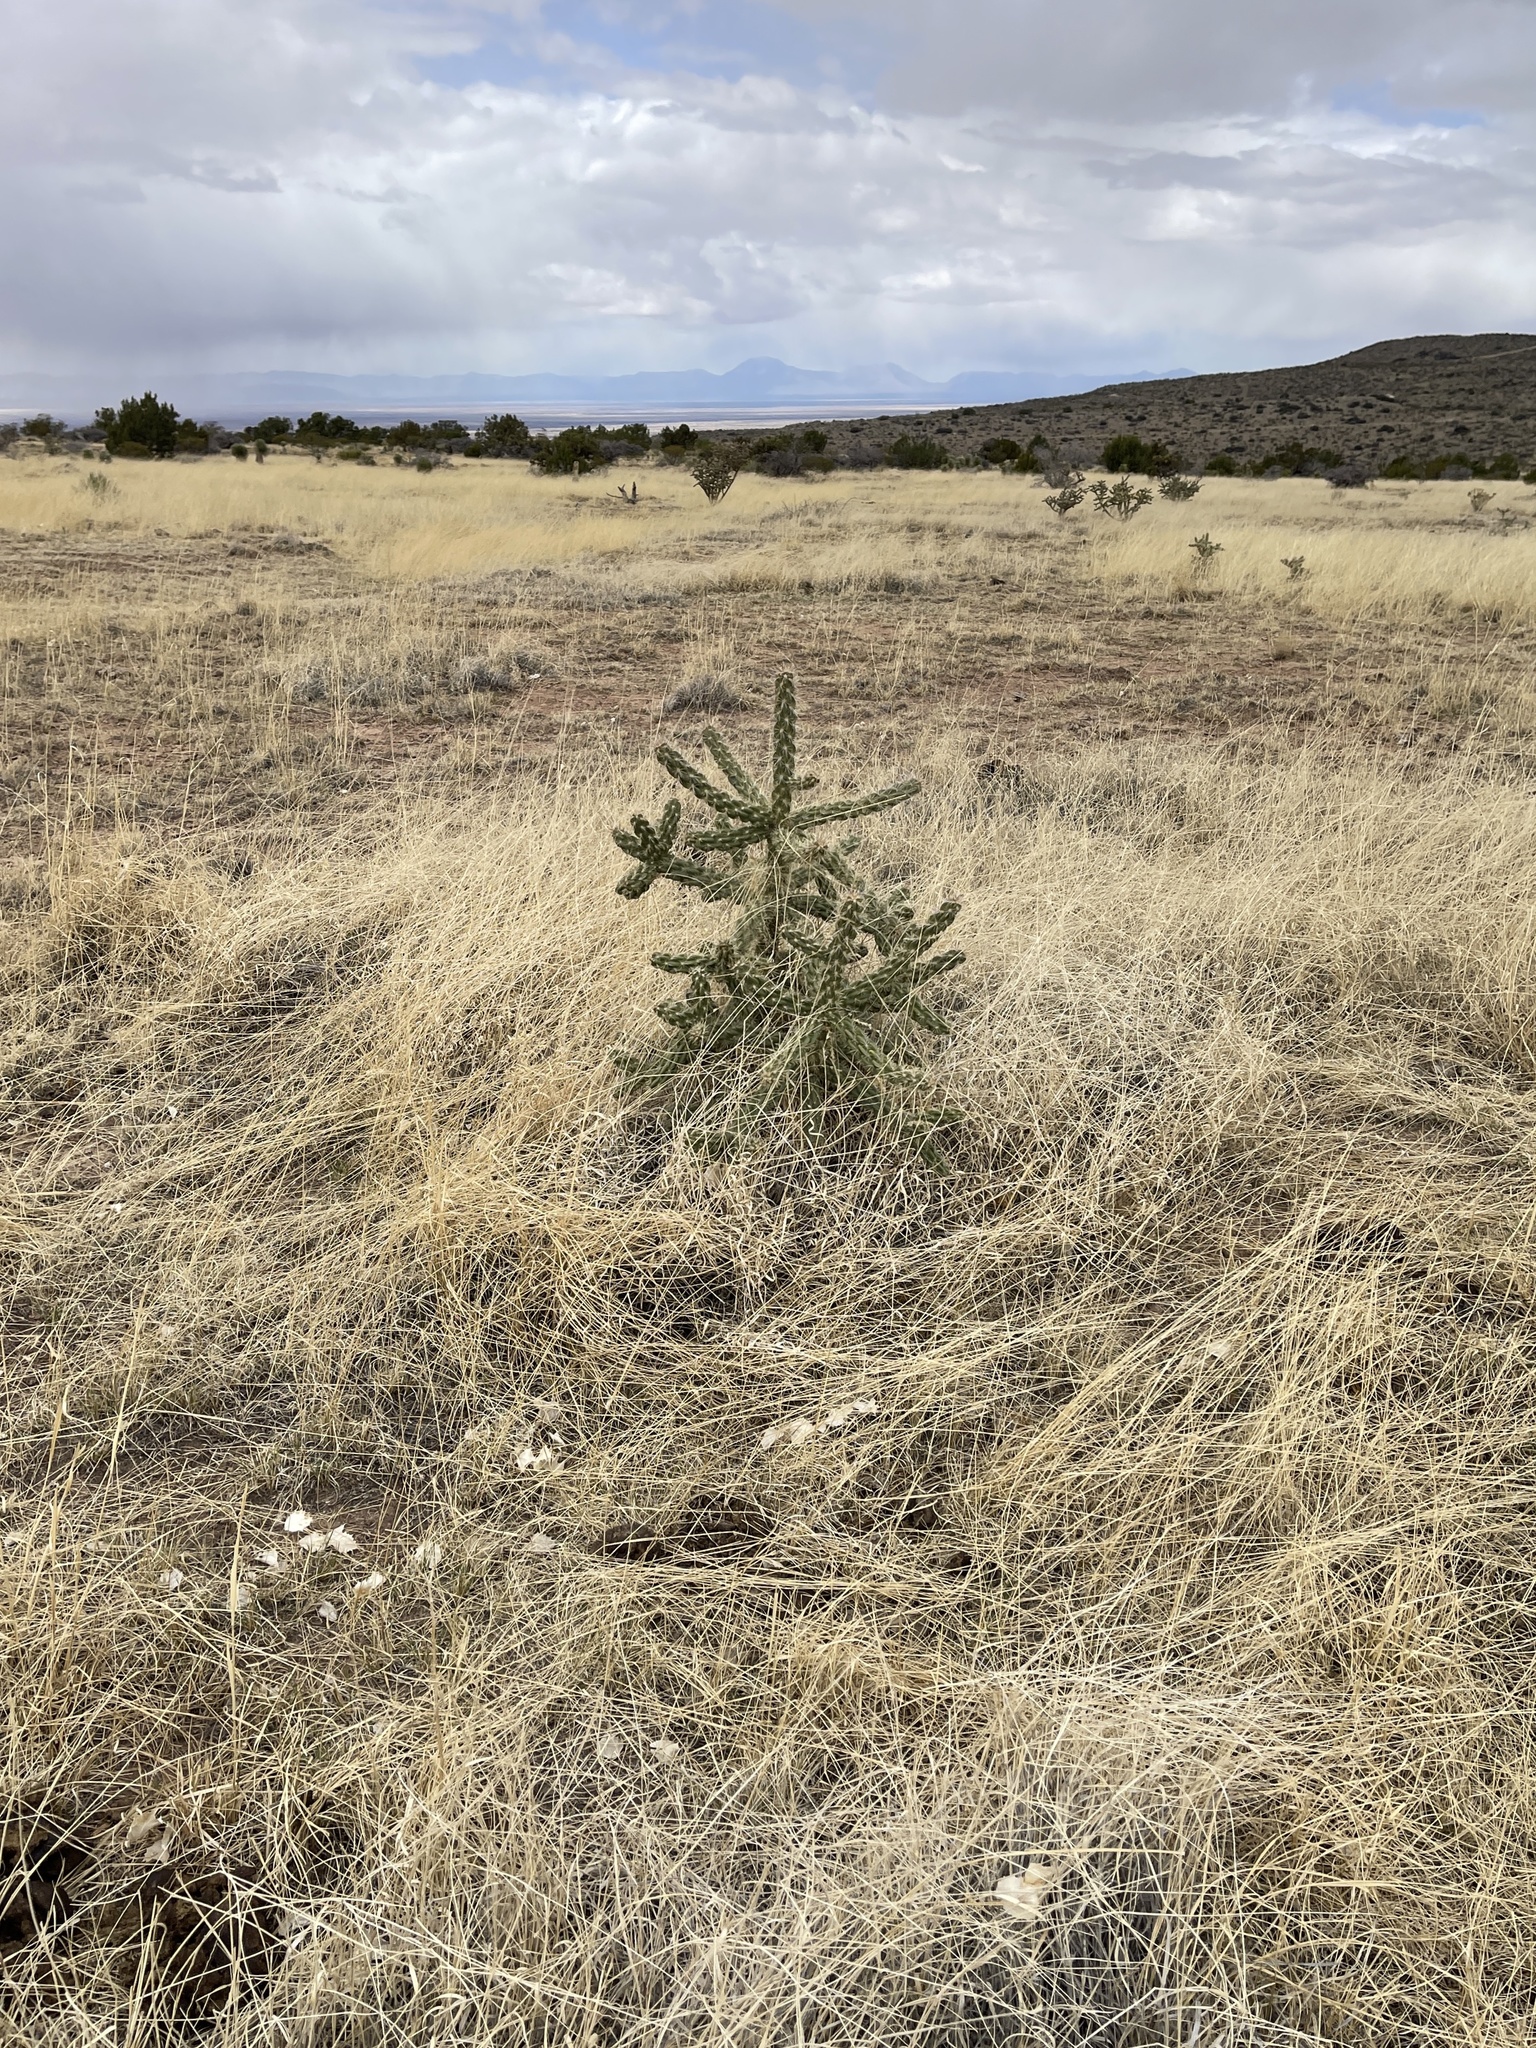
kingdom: Plantae
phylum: Tracheophyta
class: Magnoliopsida
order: Caryophyllales
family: Cactaceae
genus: Cylindropuntia
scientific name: Cylindropuntia imbricata
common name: Candelabrum cactus
